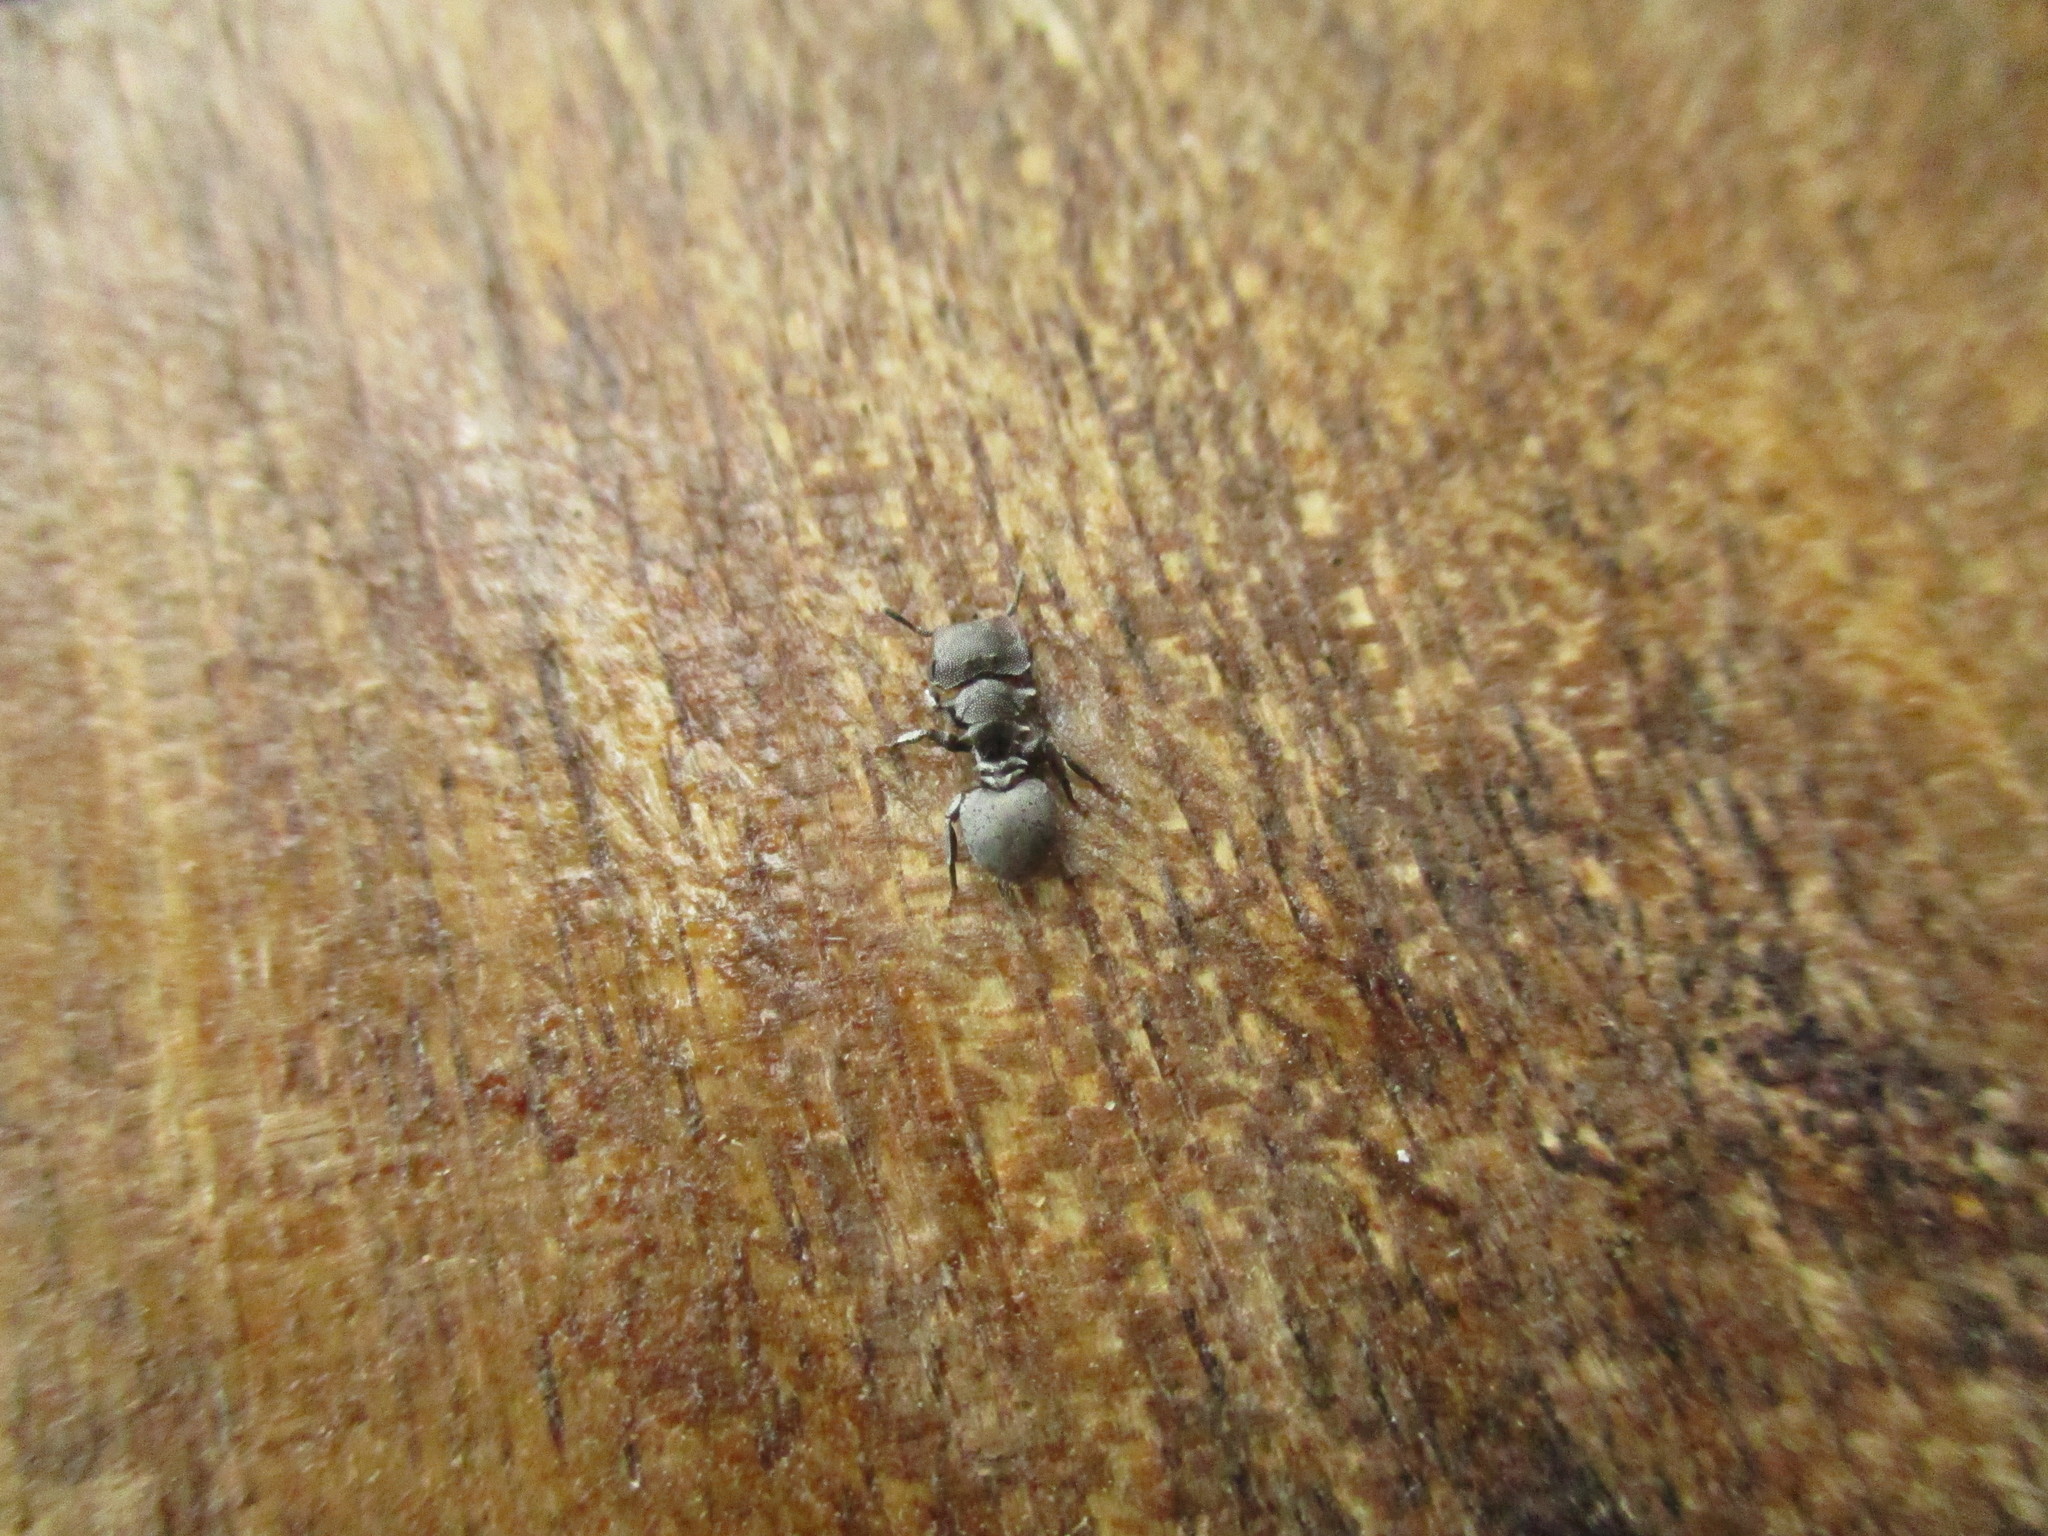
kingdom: Animalia
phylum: Arthropoda
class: Insecta
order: Hymenoptera
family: Formicidae
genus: Cephalotes
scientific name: Cephalotes cristatus
